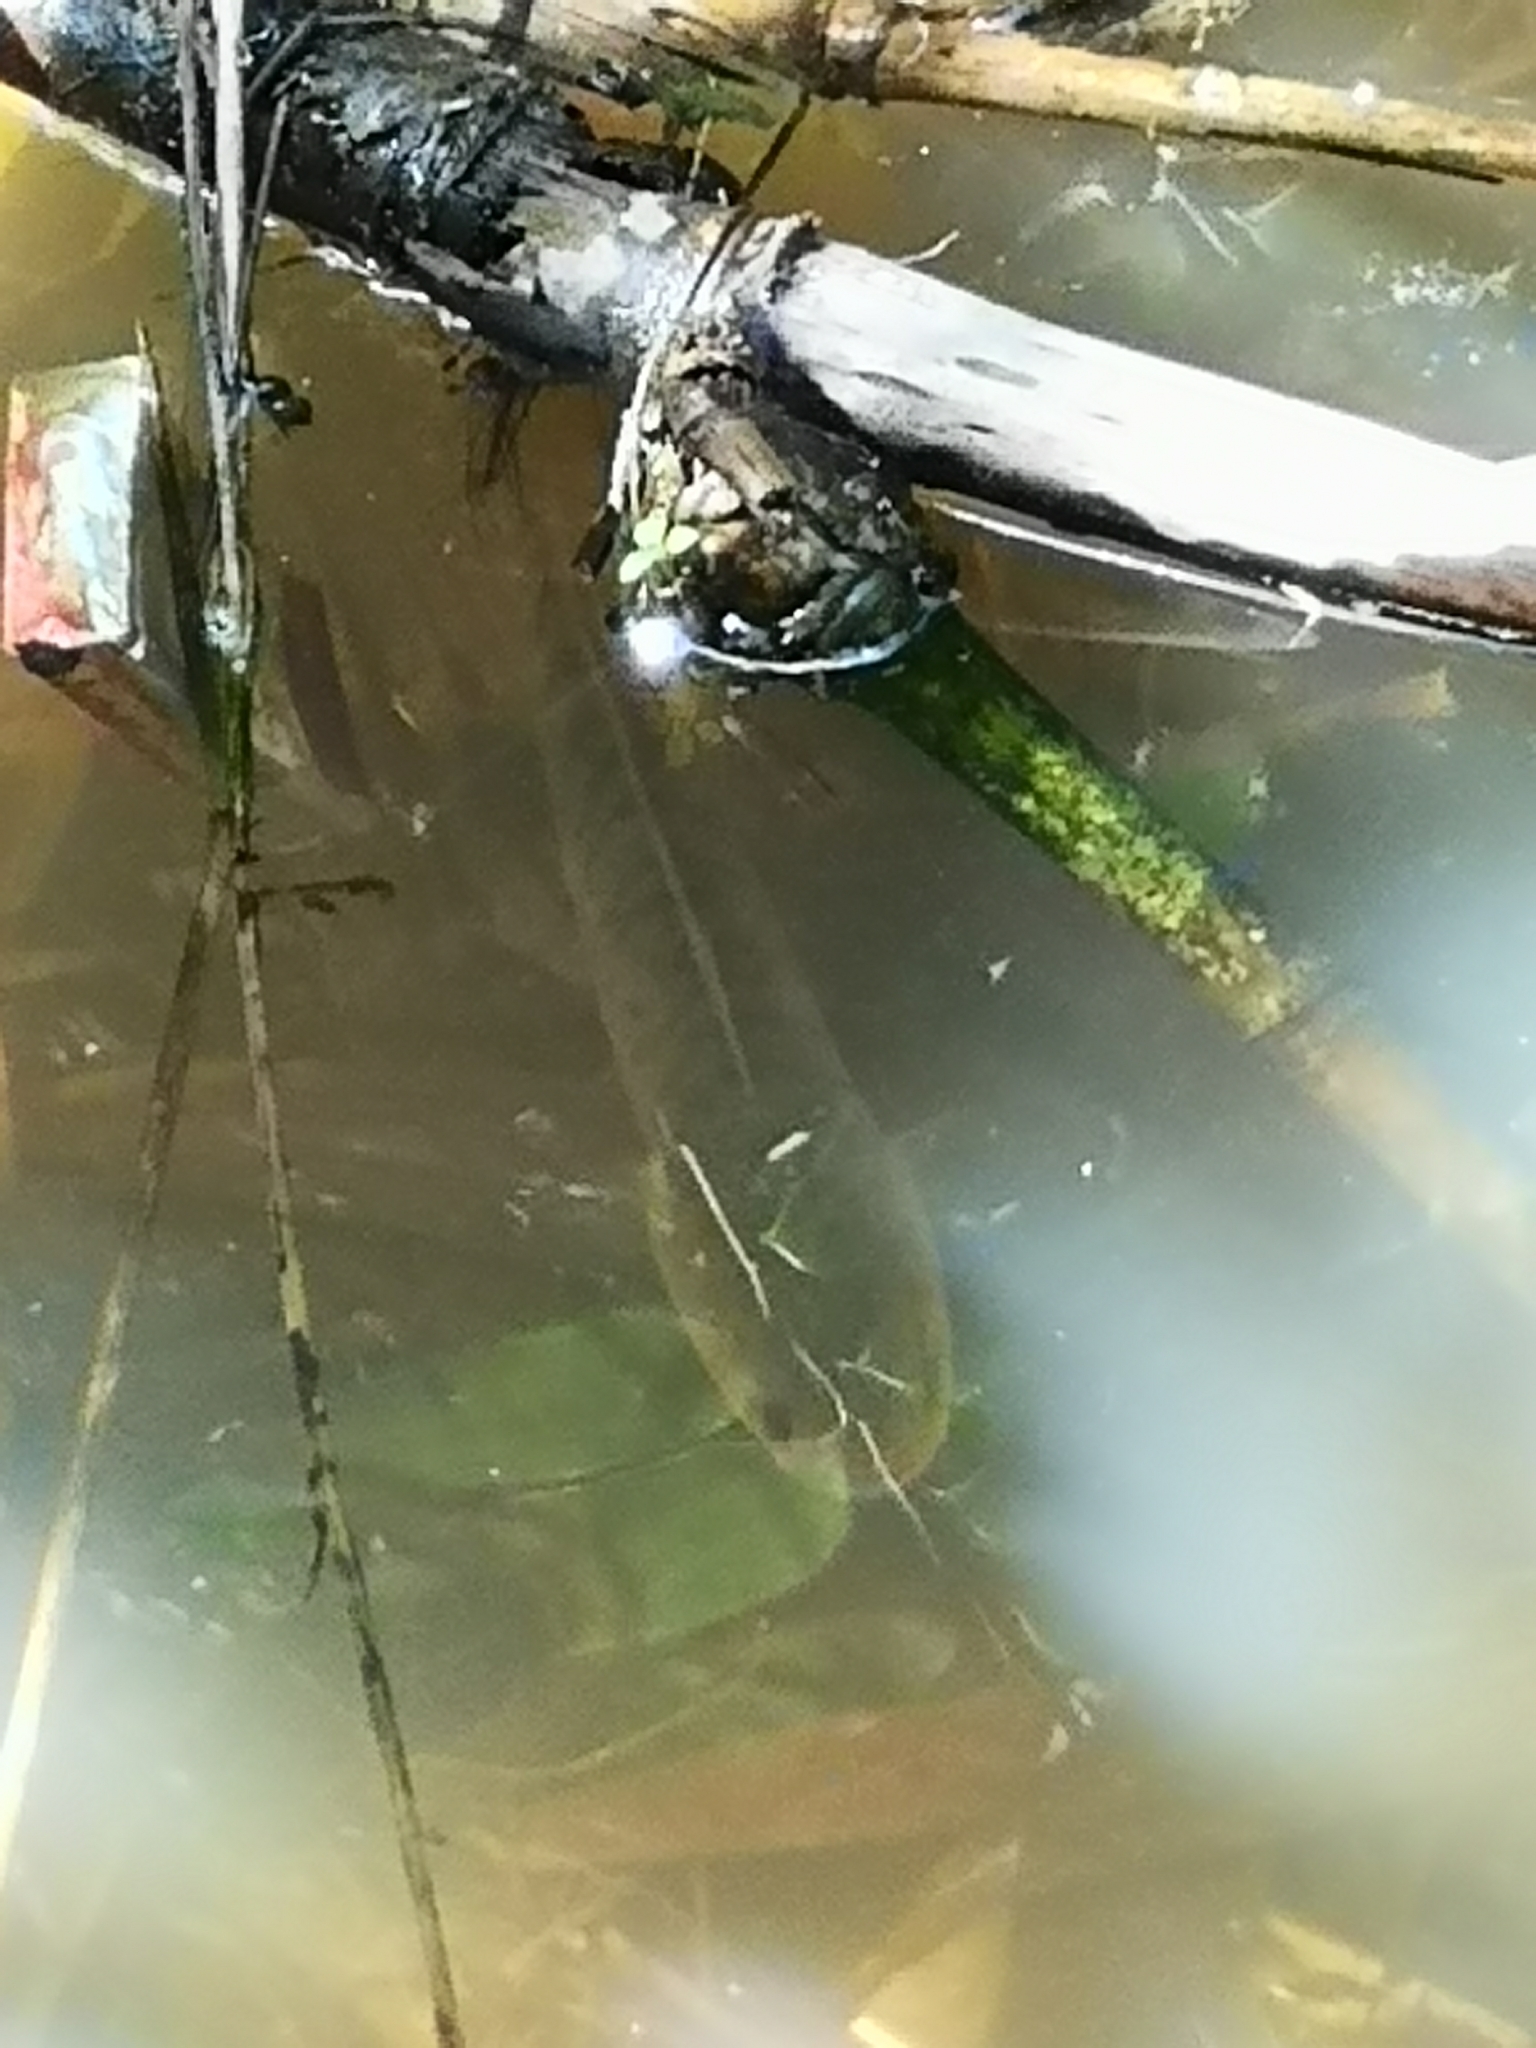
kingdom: Animalia
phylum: Chordata
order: Perciformes
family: Channidae
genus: Channa
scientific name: Channa striata
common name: Striped snakehead
